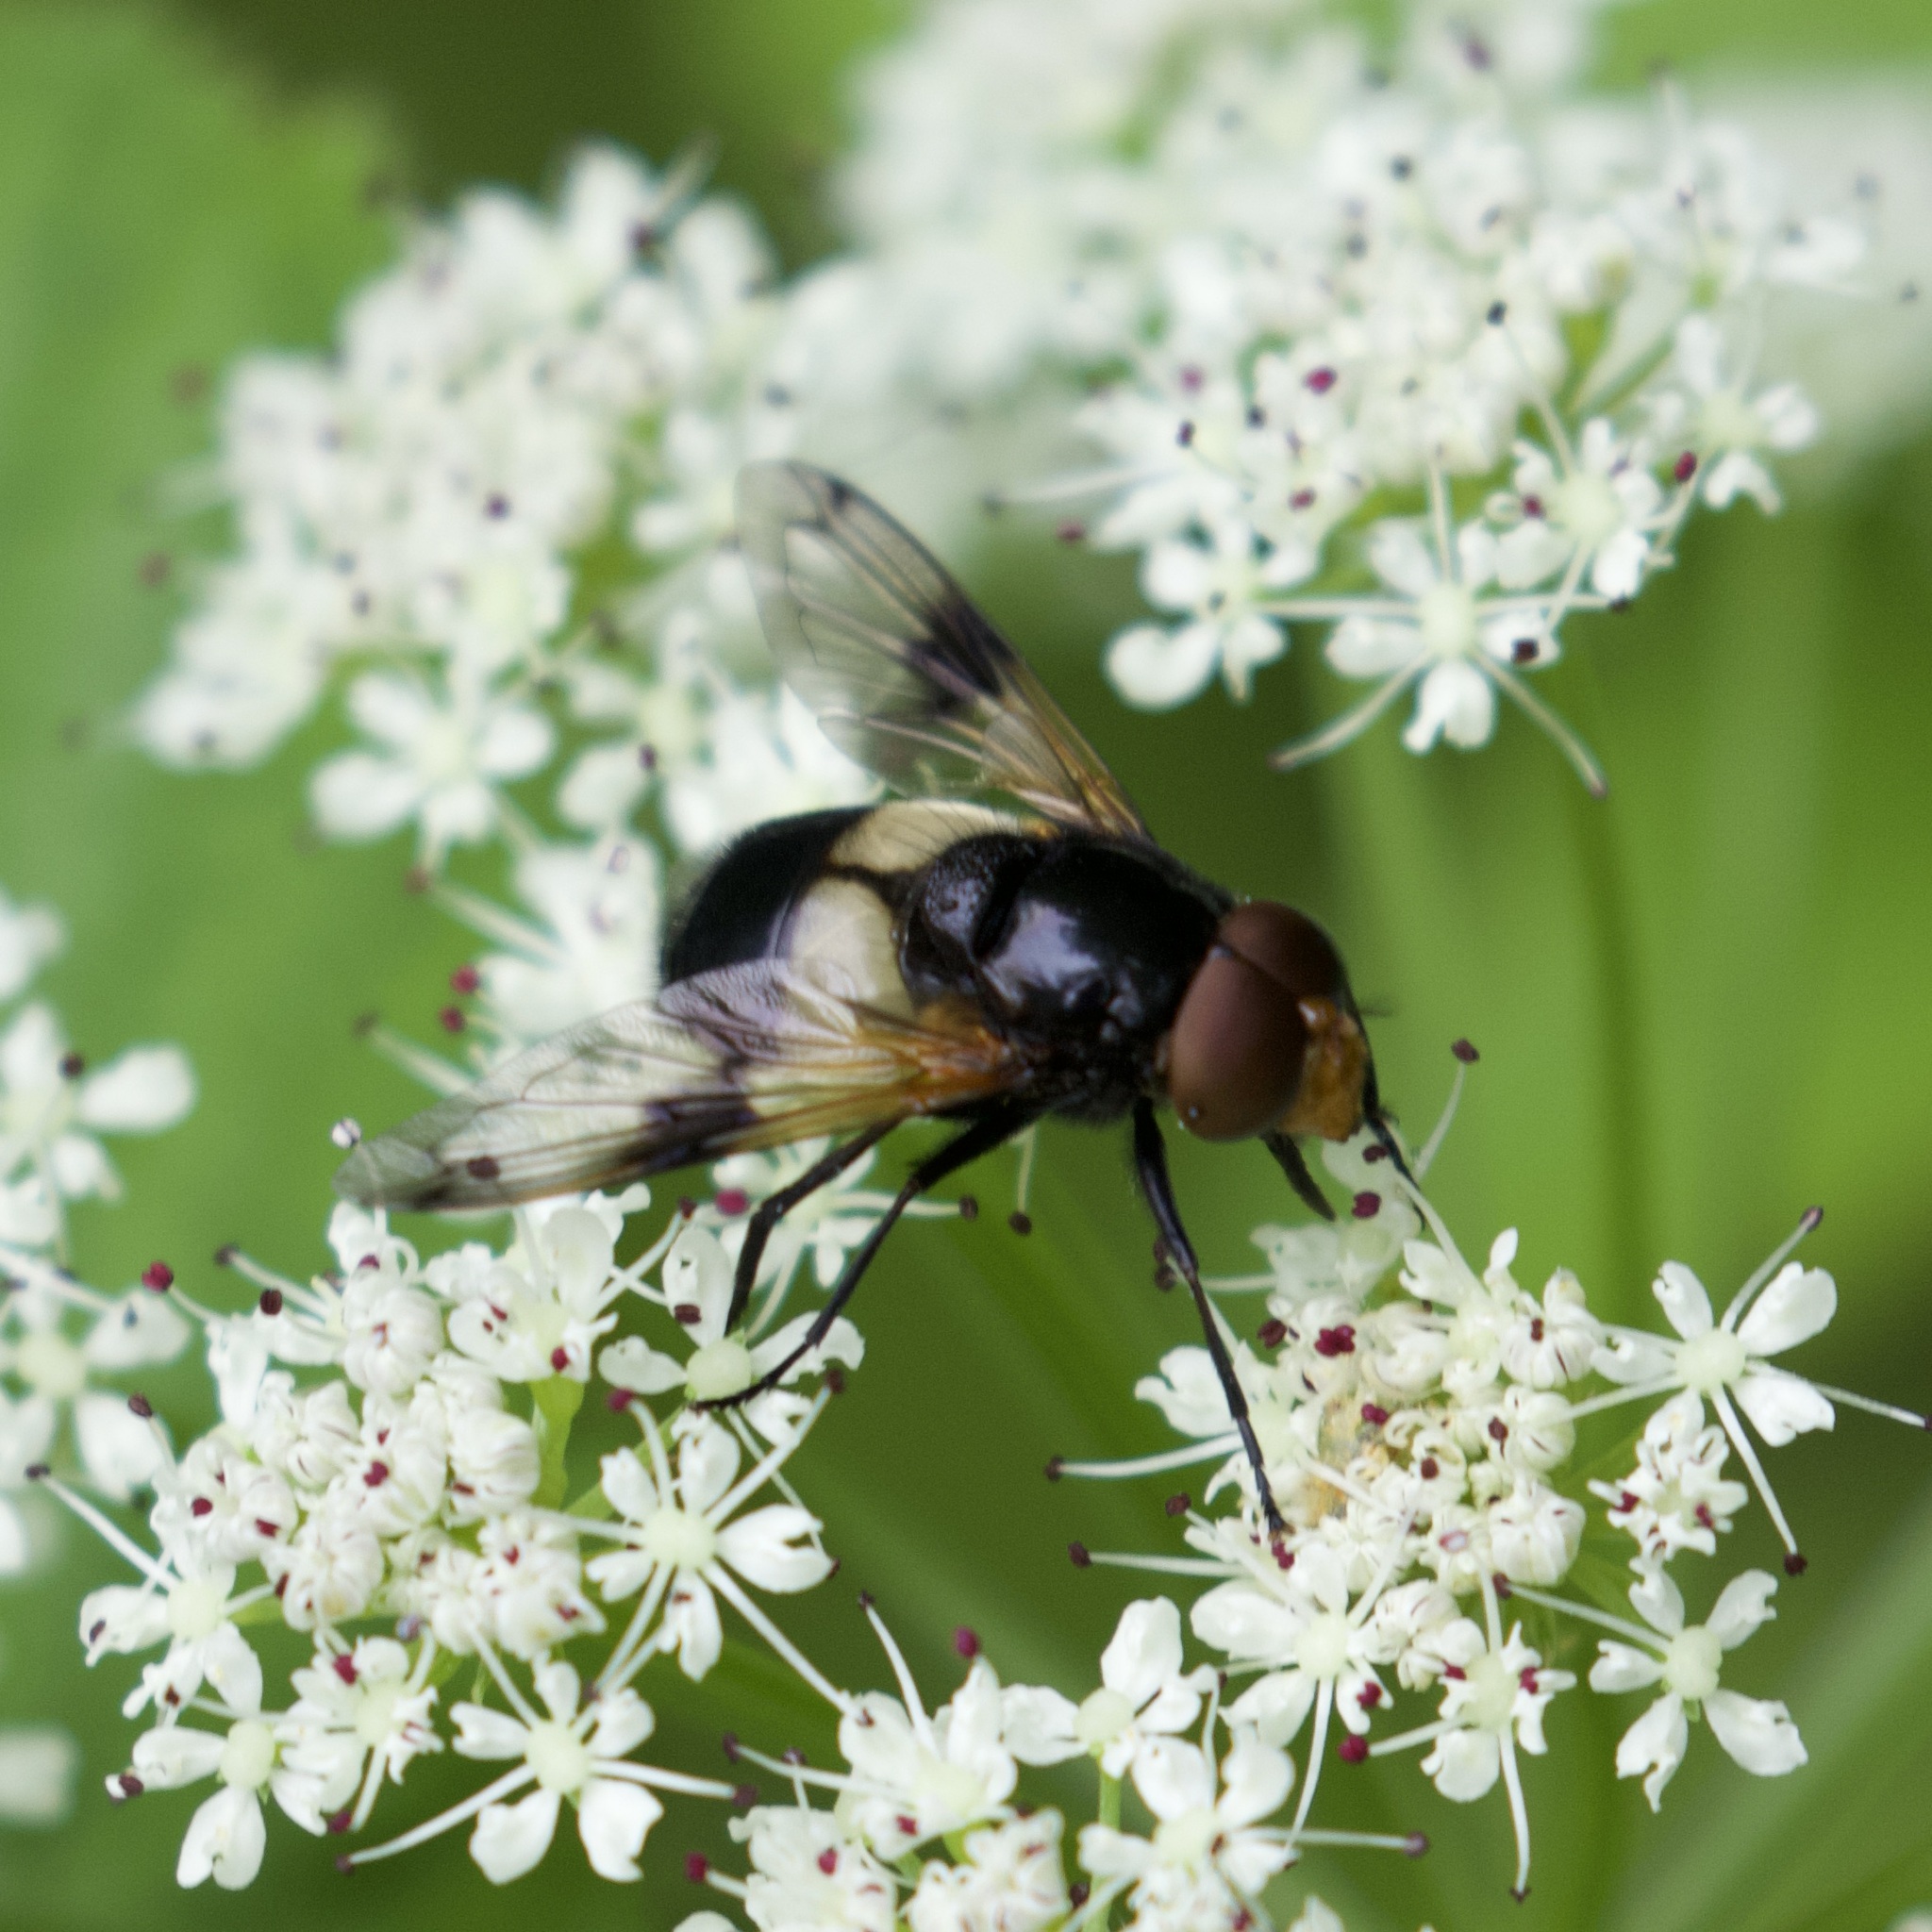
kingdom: Animalia
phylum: Arthropoda
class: Insecta
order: Diptera
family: Syrphidae
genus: Volucella
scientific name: Volucella pellucens
